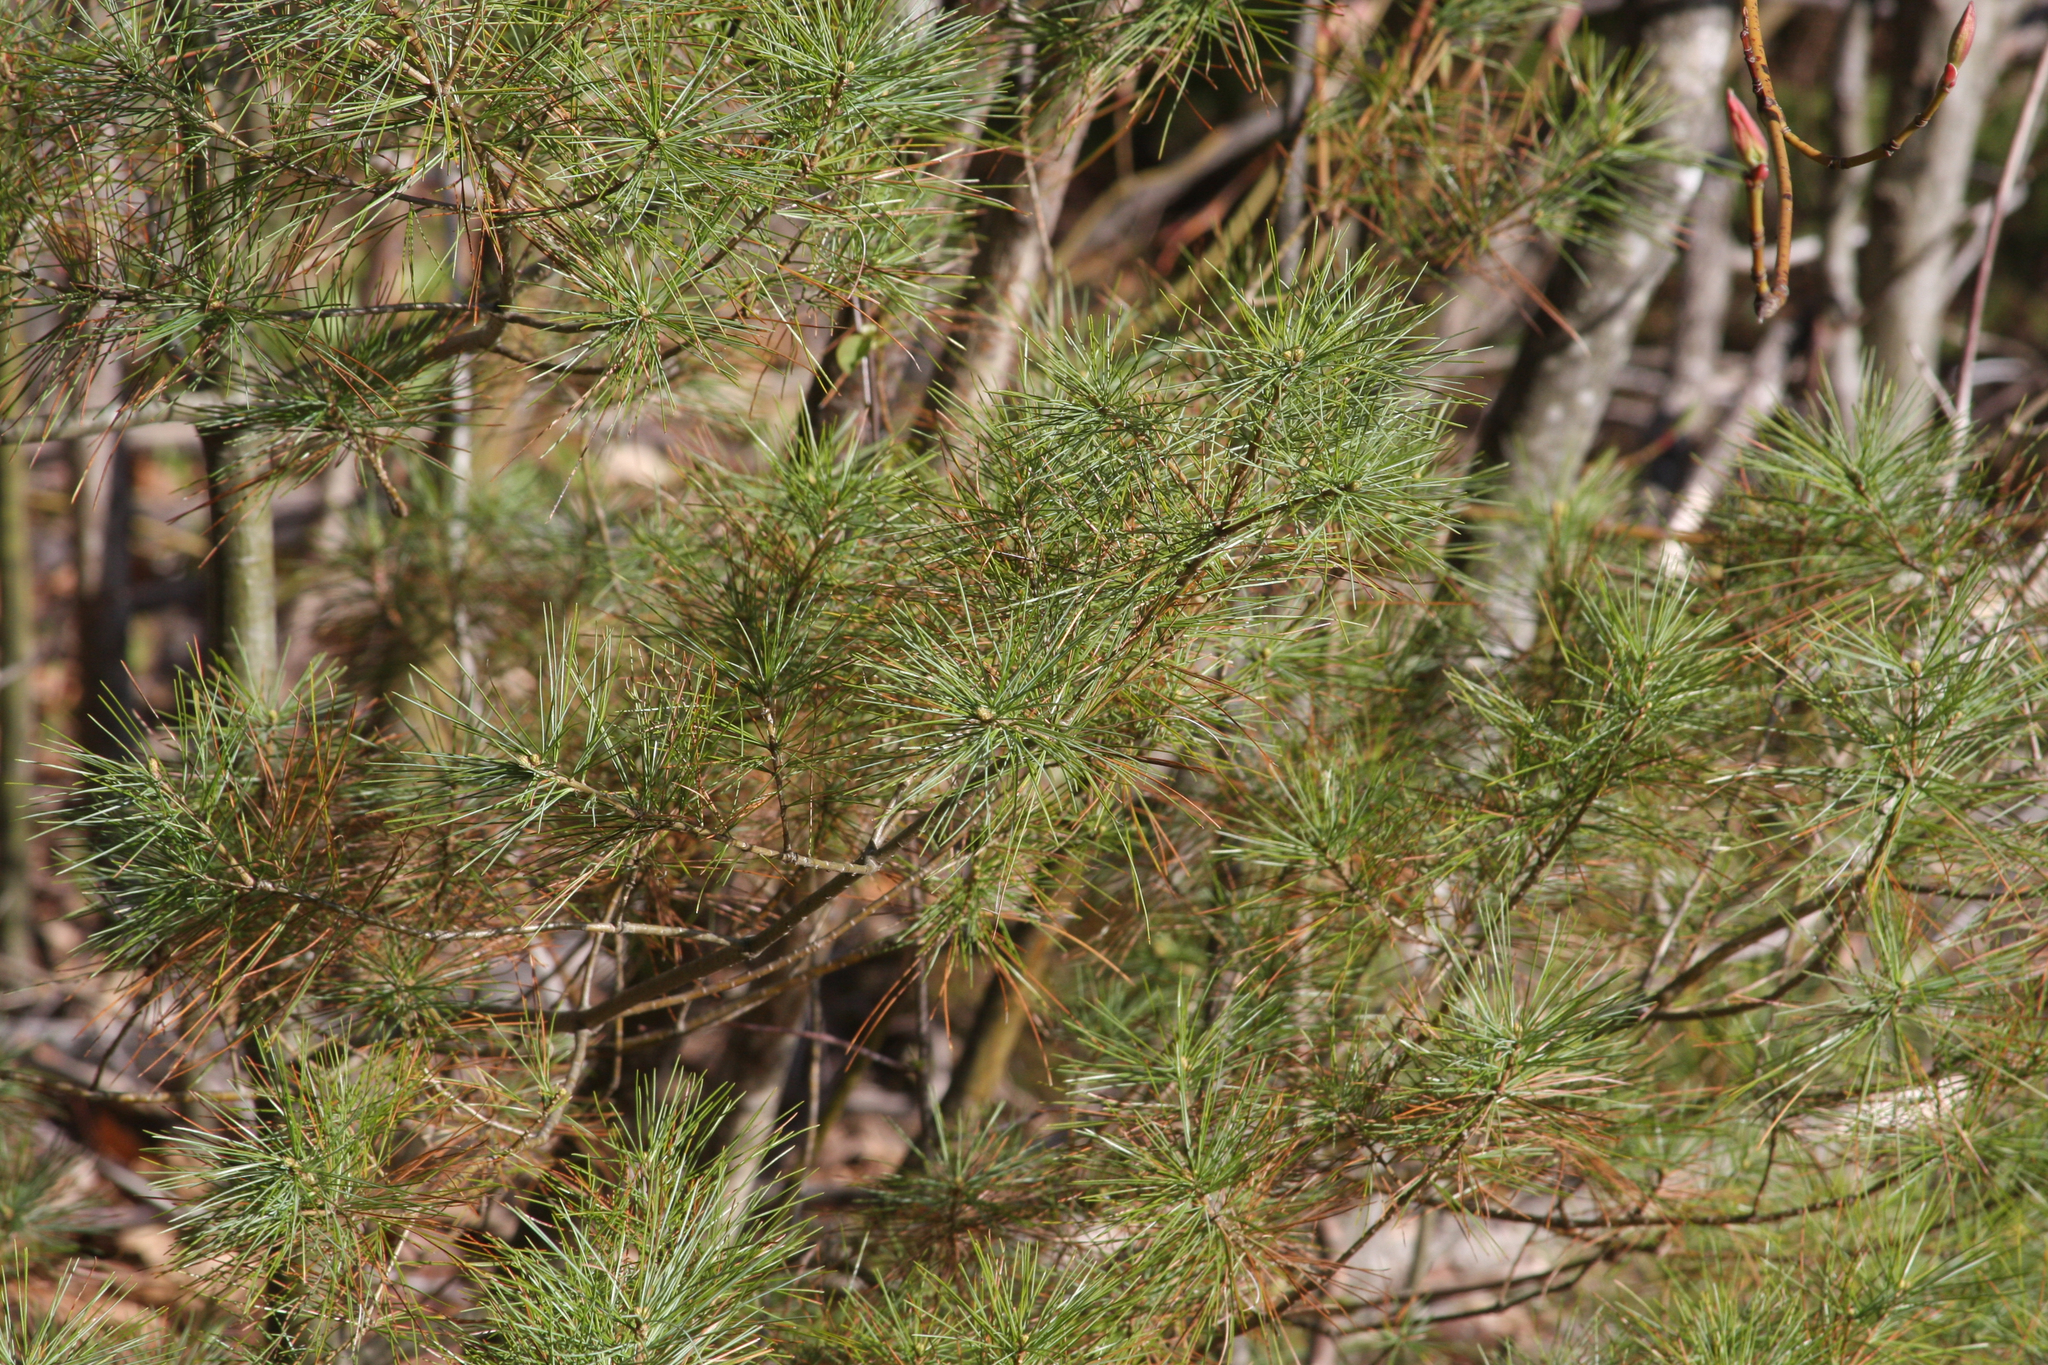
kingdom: Plantae
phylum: Tracheophyta
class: Pinopsida
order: Pinales
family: Pinaceae
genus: Pinus
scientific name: Pinus strobus
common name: Weymouth pine
